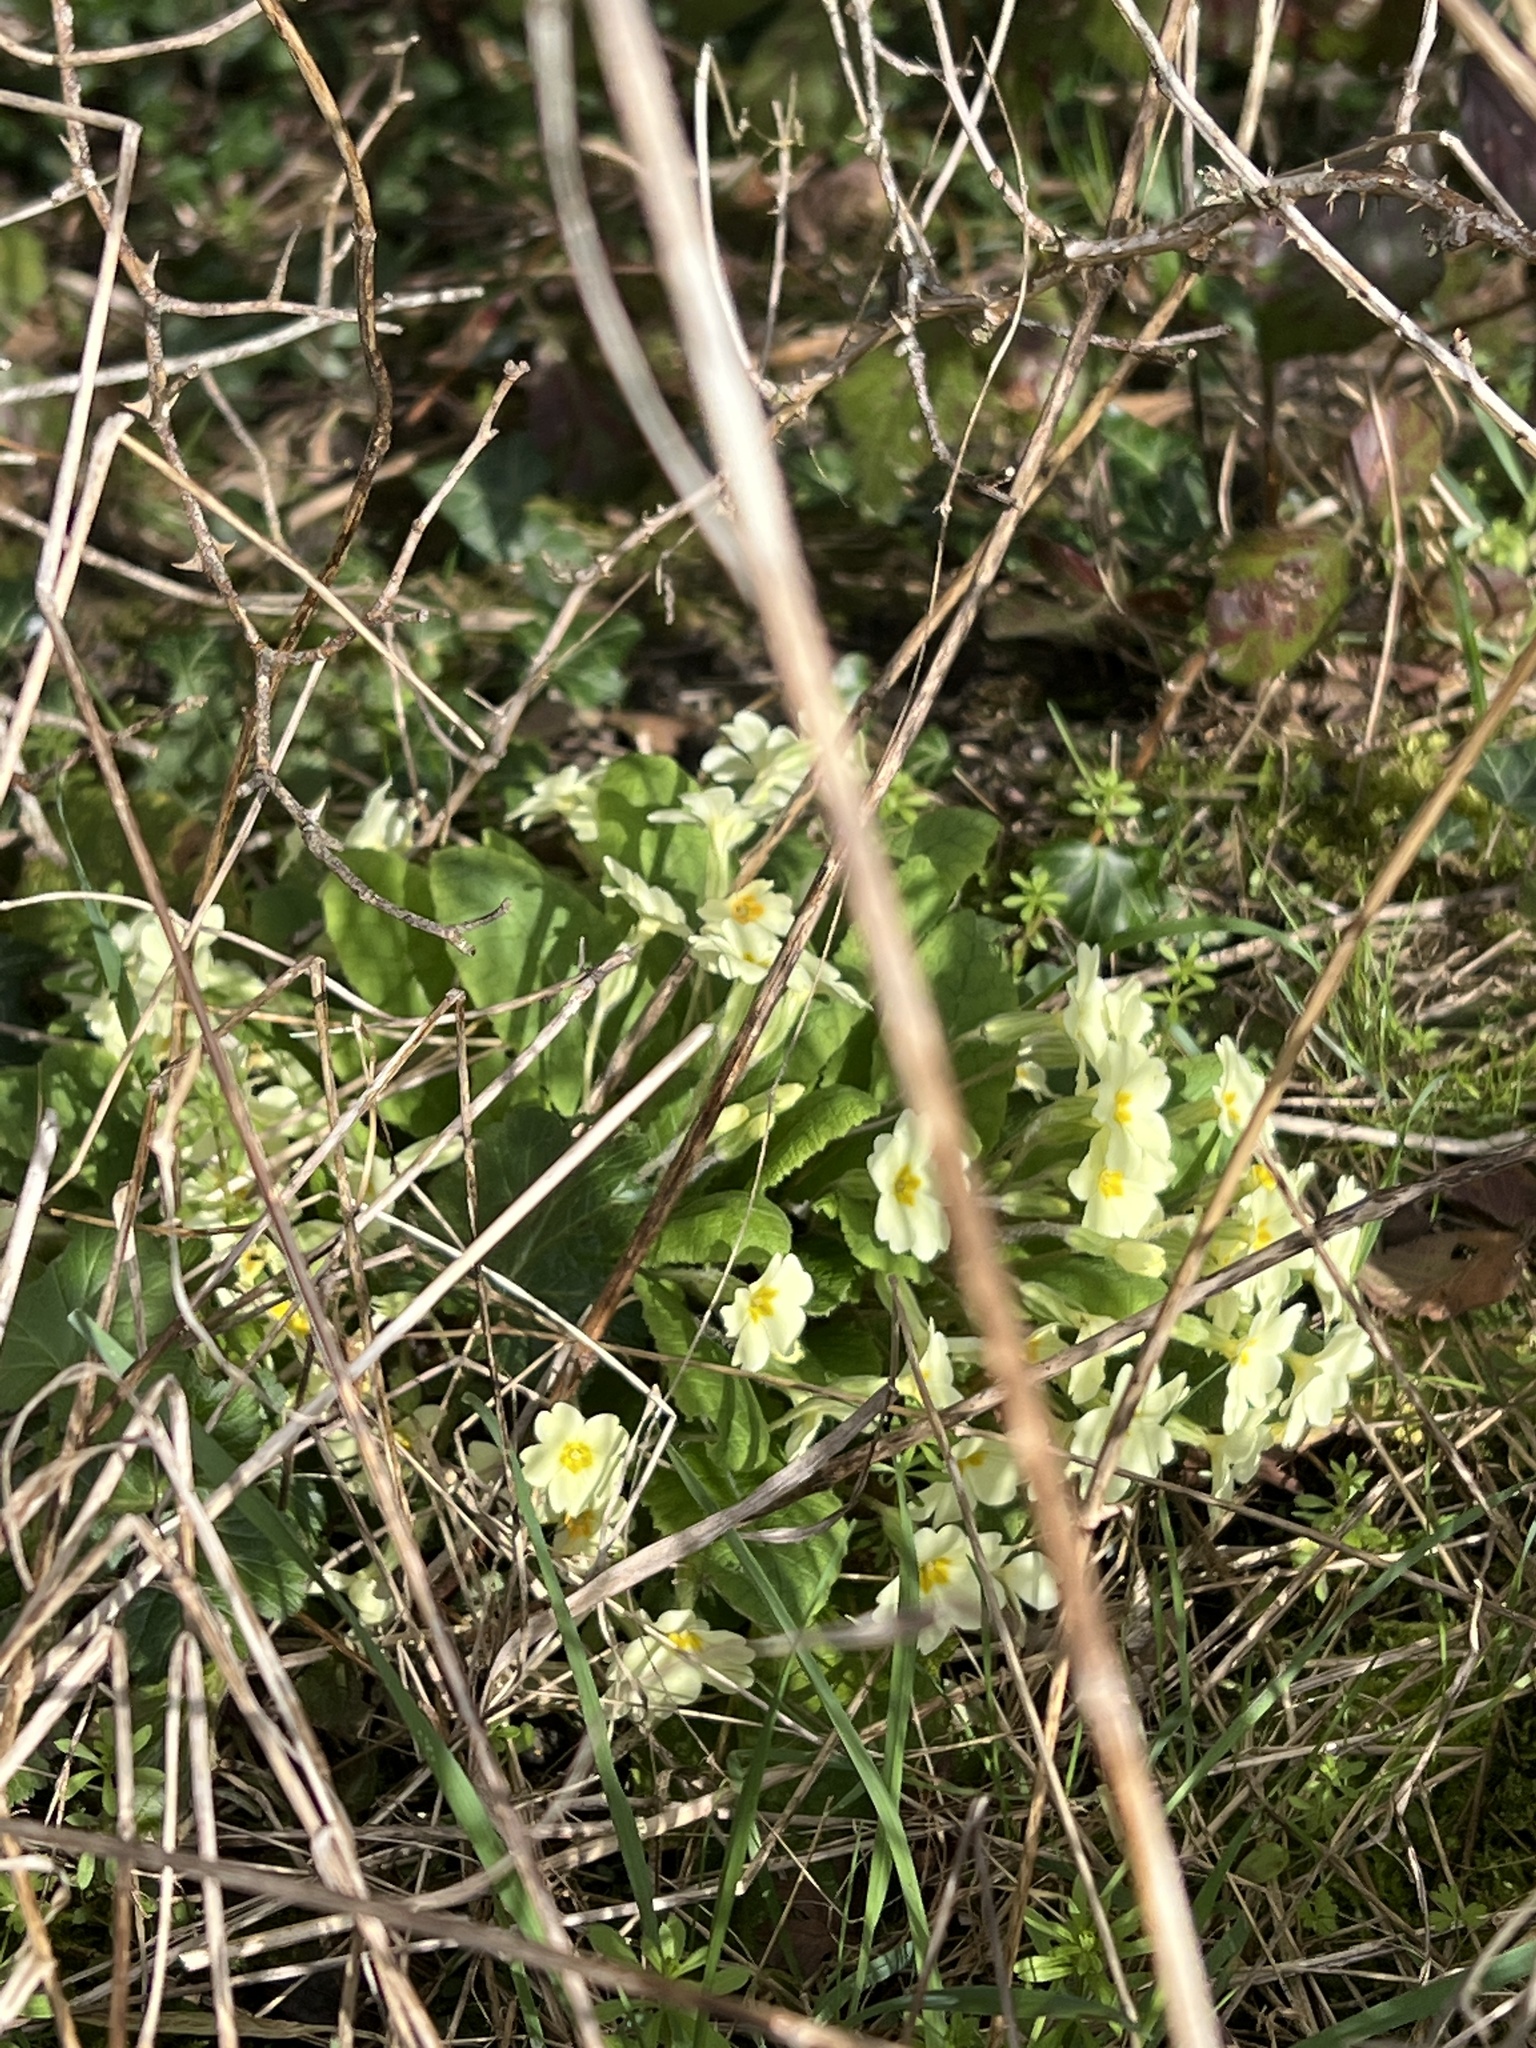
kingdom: Plantae
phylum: Tracheophyta
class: Magnoliopsida
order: Ericales
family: Primulaceae
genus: Primula
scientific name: Primula vulgaris
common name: Primrose
